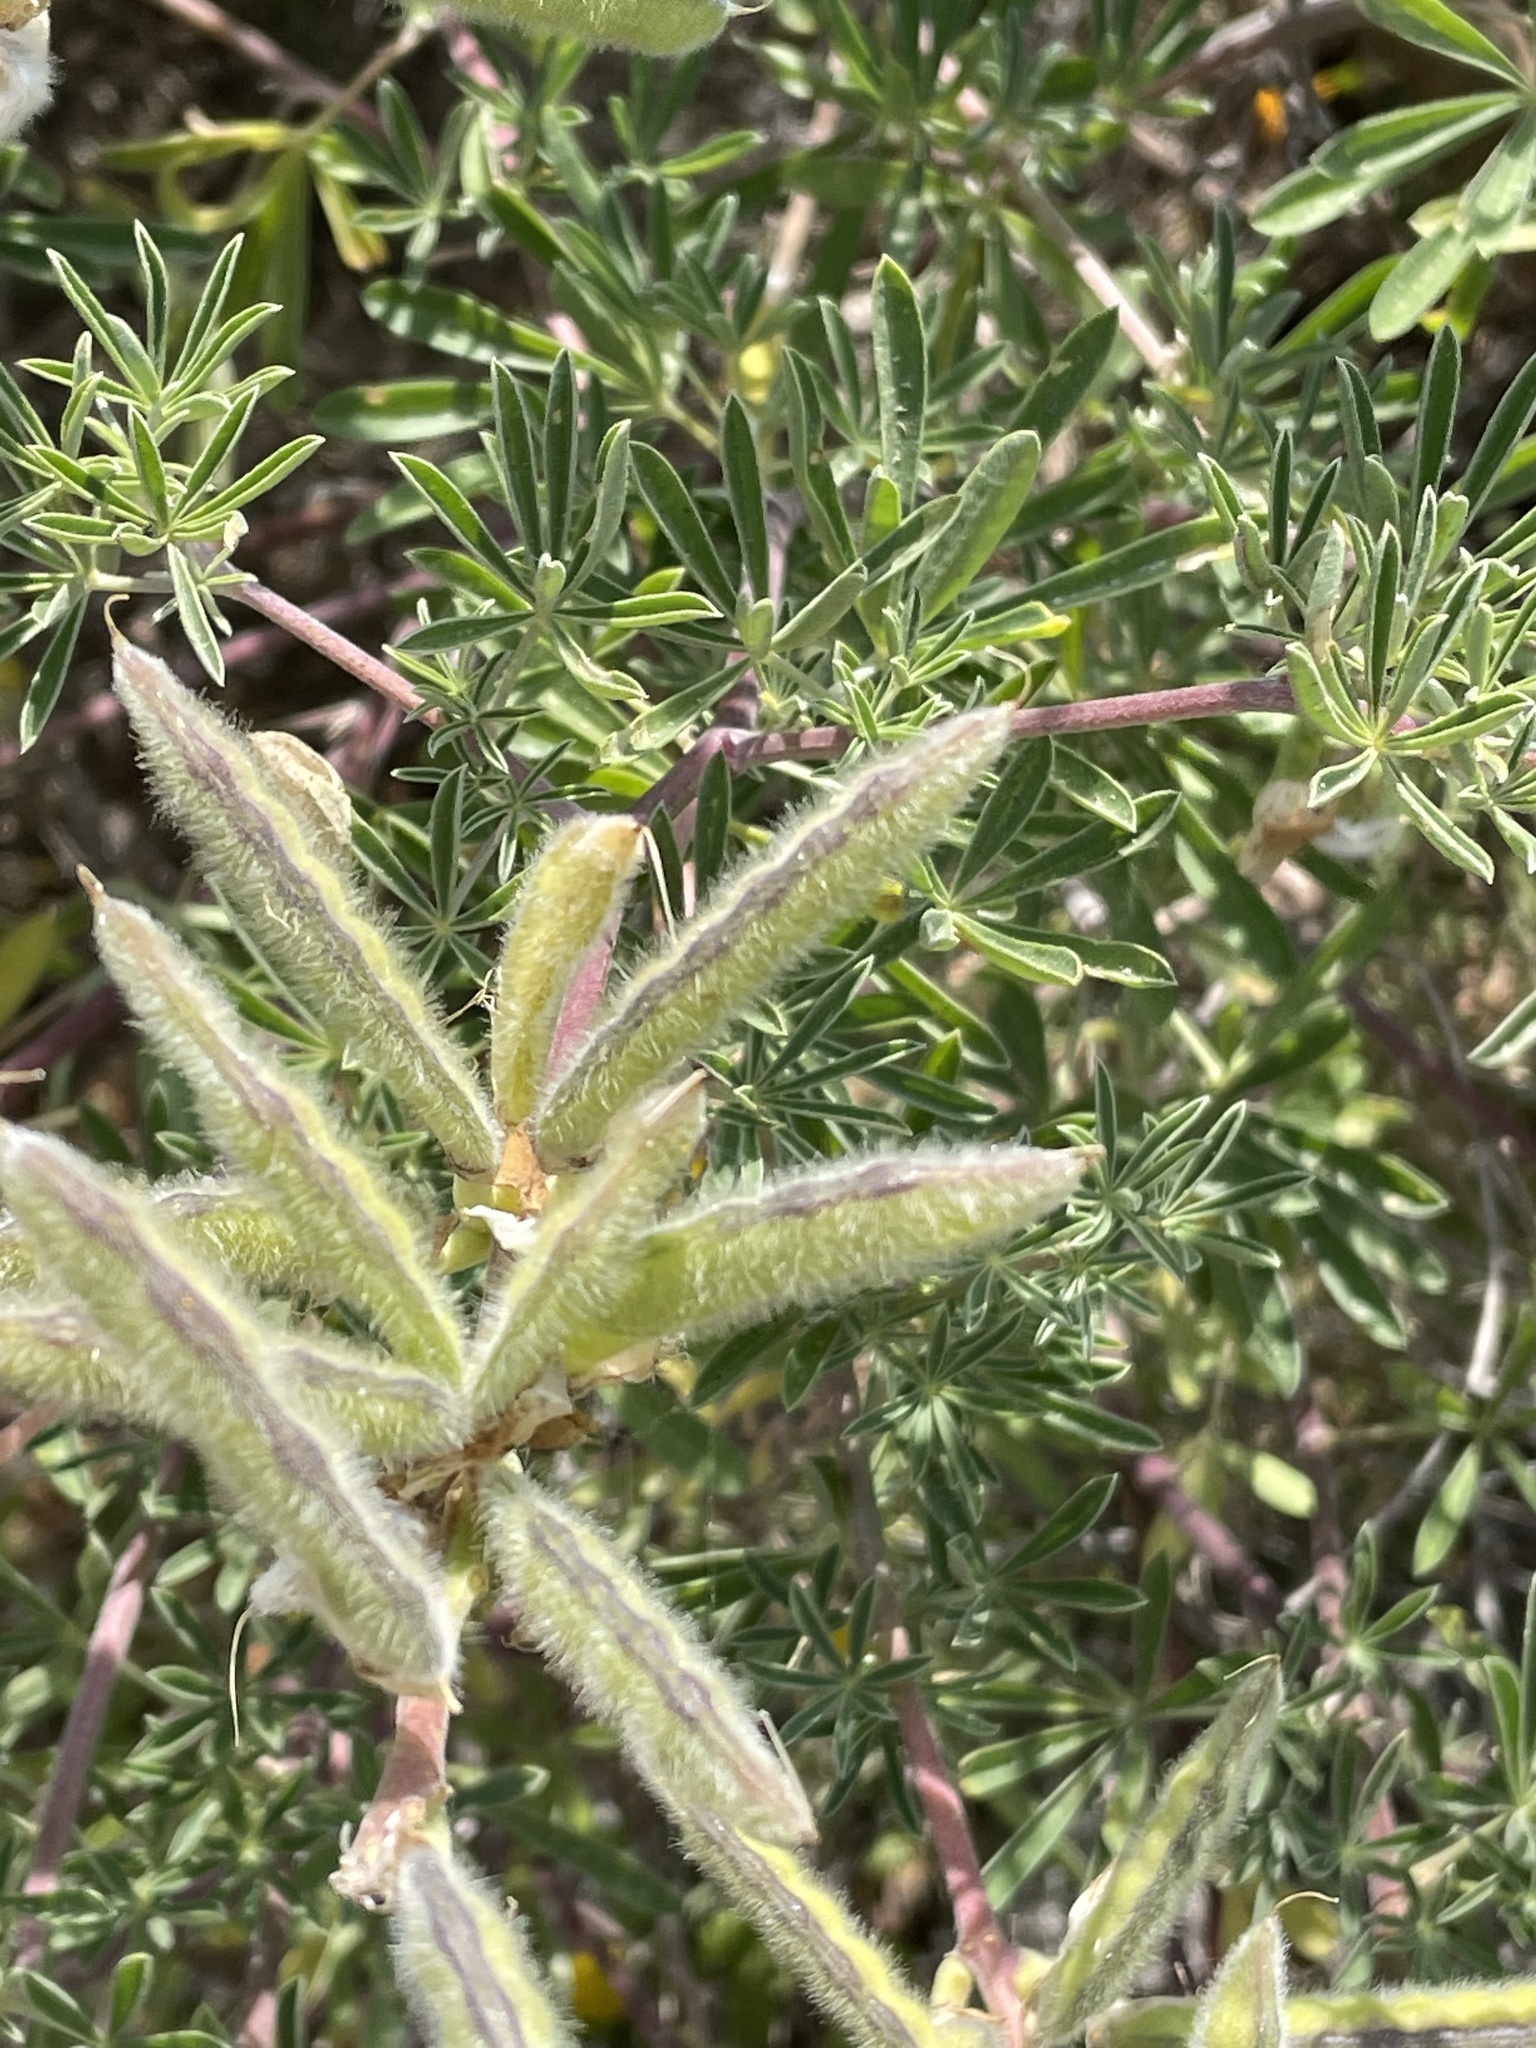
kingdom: Plantae
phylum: Tracheophyta
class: Magnoliopsida
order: Fabales
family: Fabaceae
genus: Lupinus
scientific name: Lupinus arboreus
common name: Yellow bush lupine
